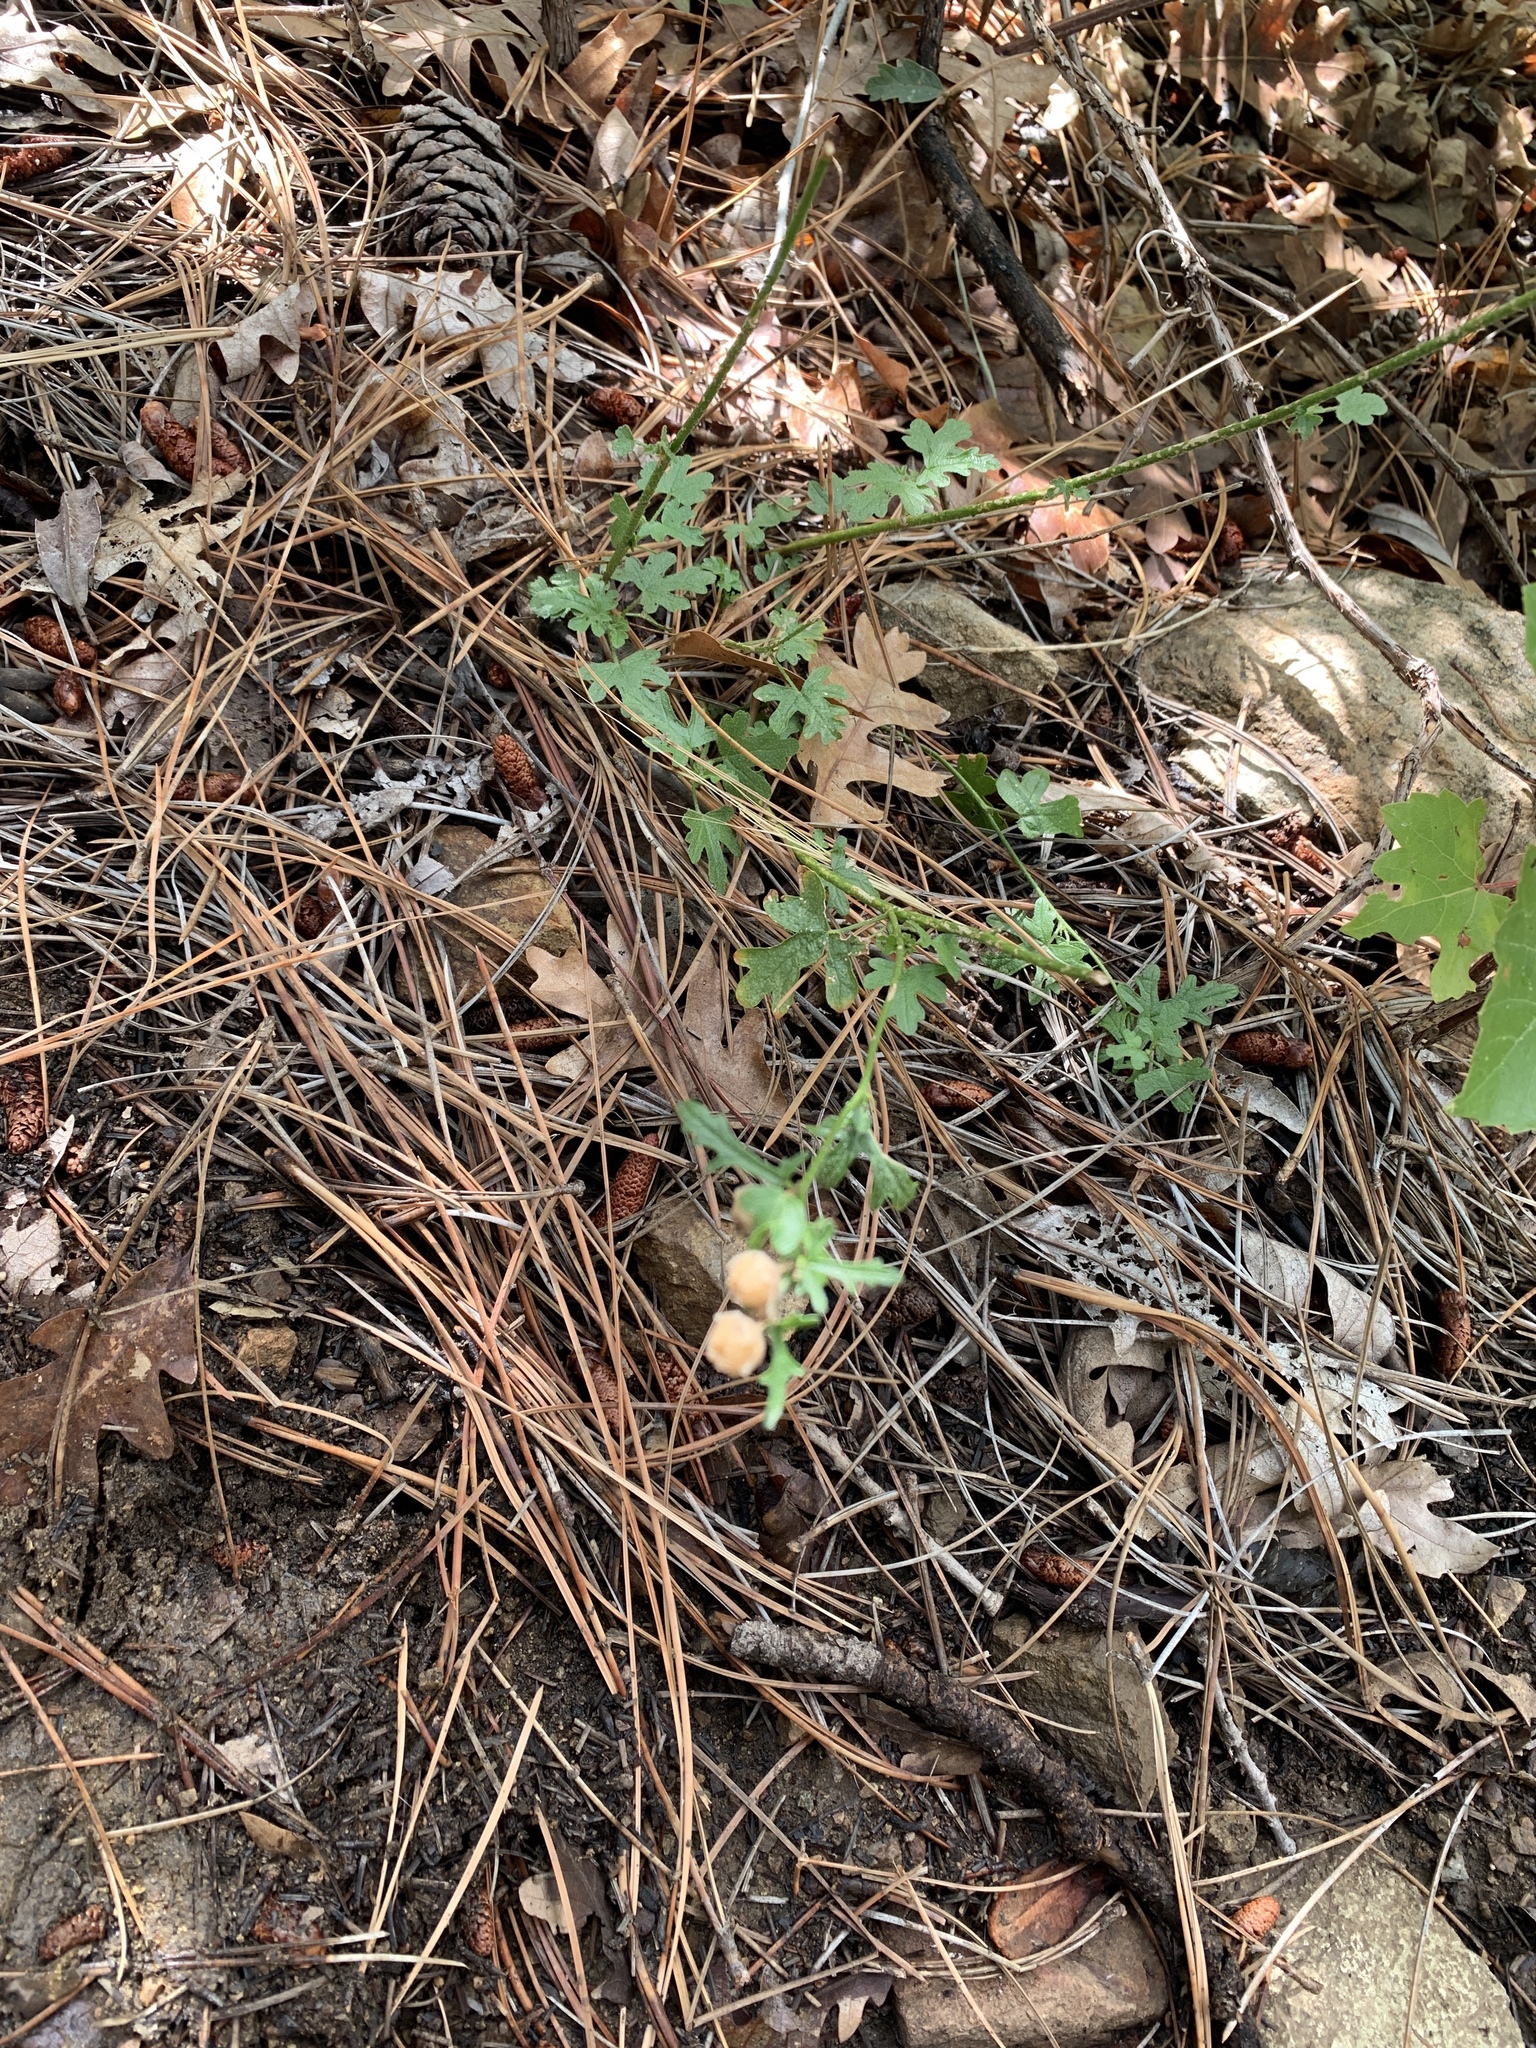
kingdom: Plantae
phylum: Tracheophyta
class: Magnoliopsida
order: Malvales
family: Malvaceae
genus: Sphaeralcea
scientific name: Sphaeralcea rusbyi
